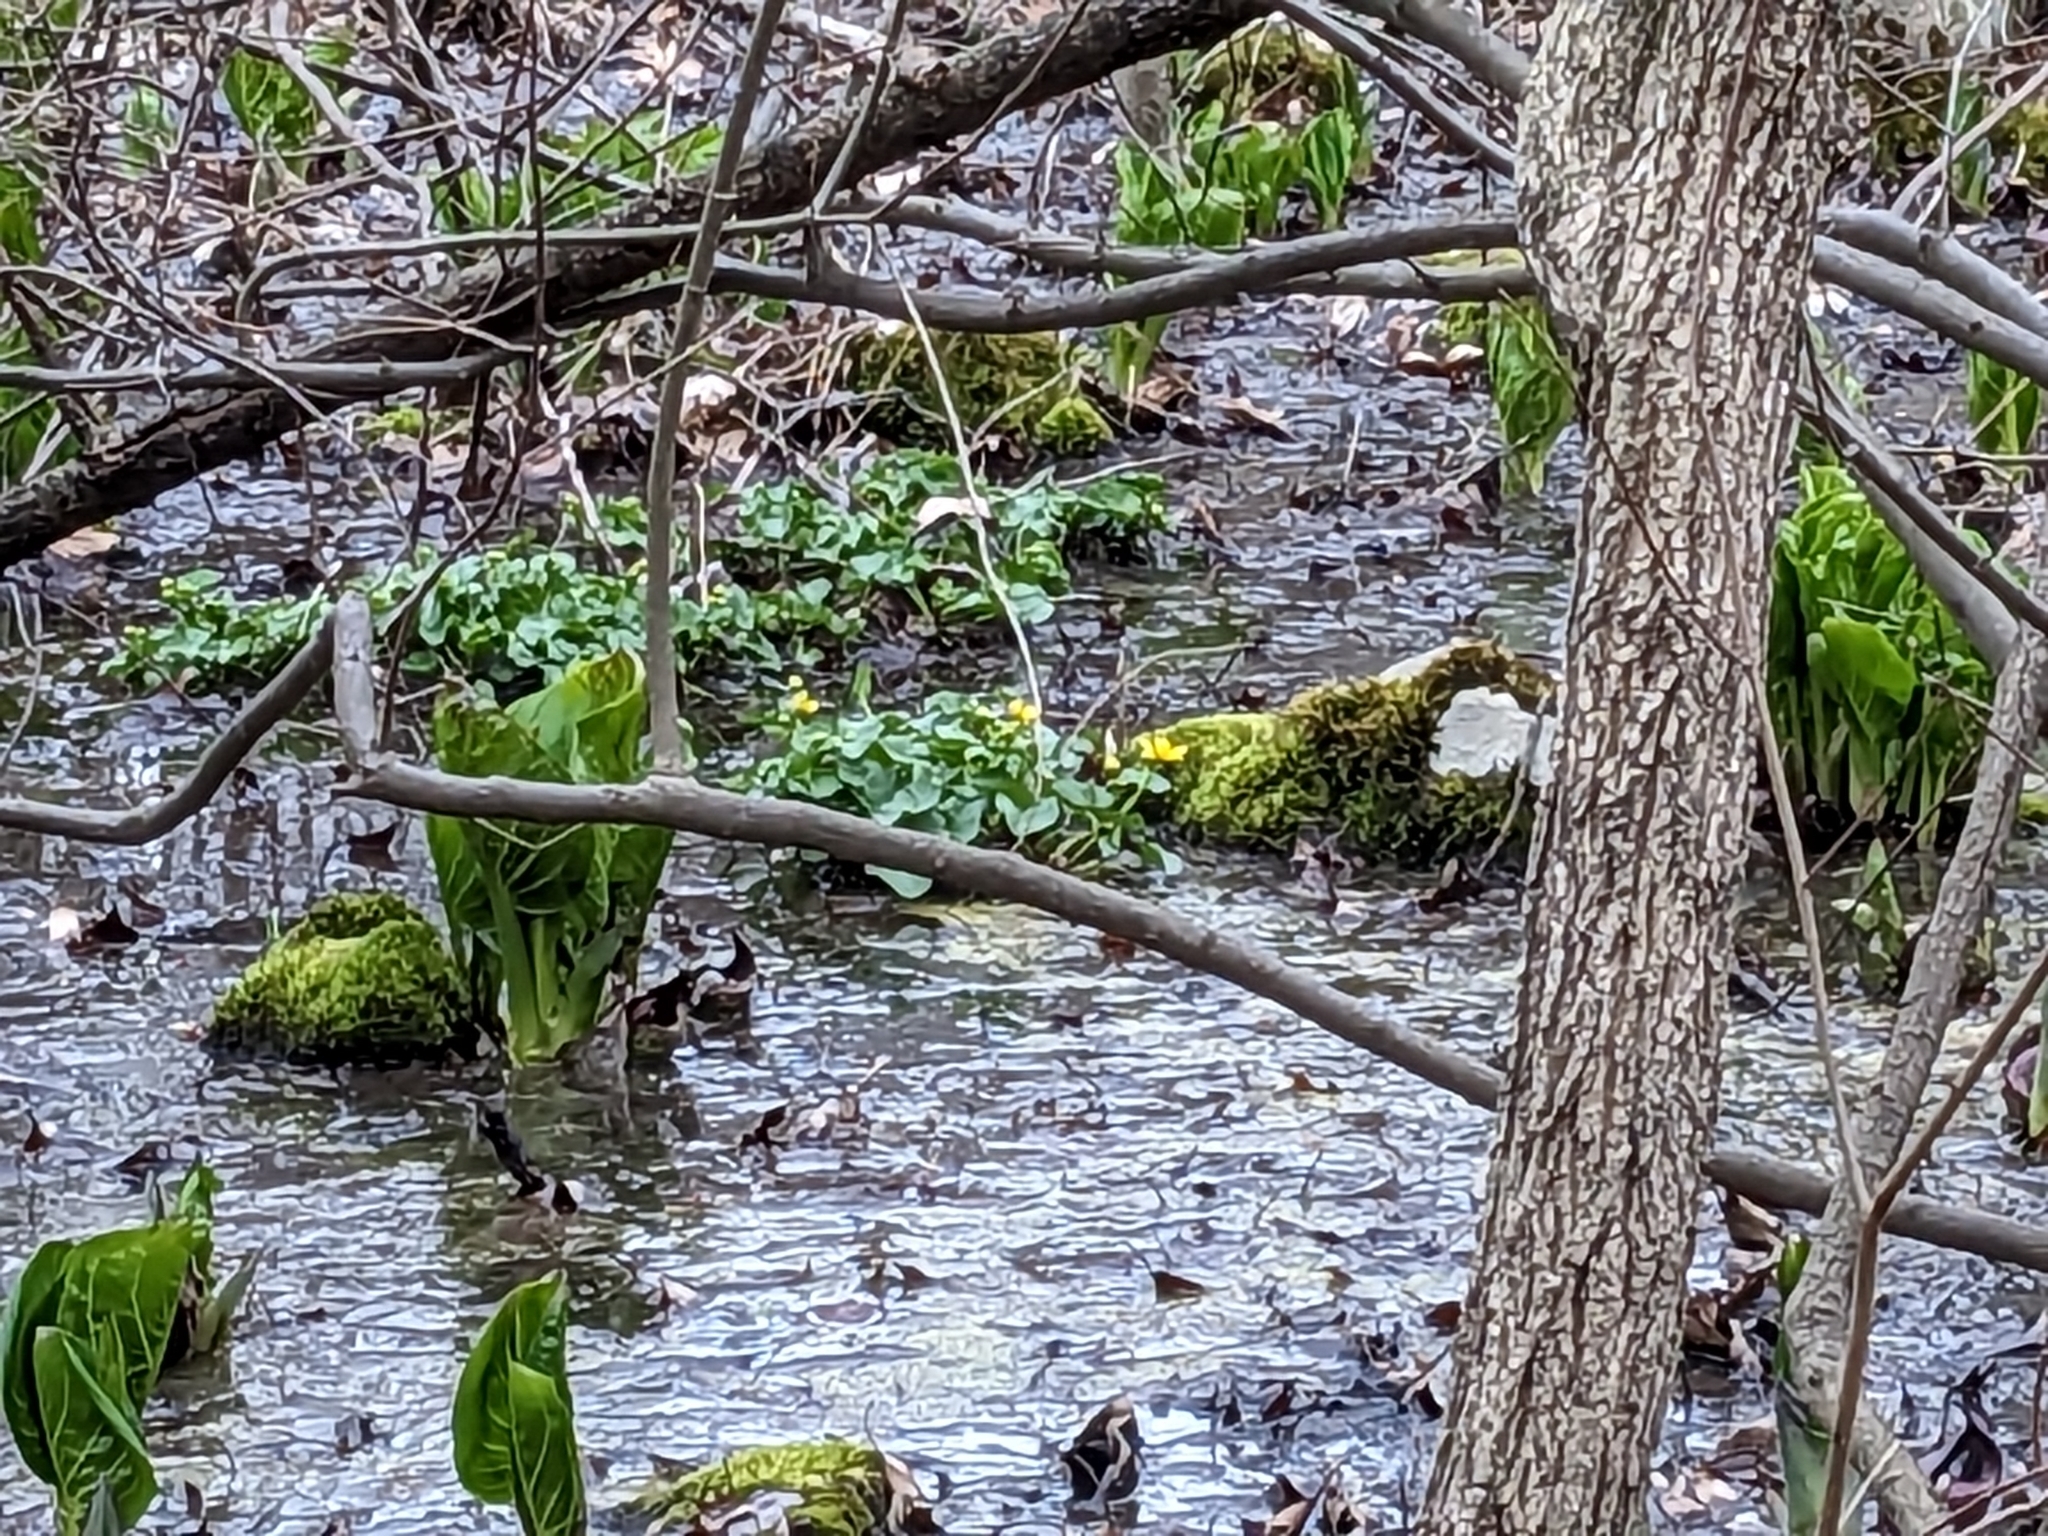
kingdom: Plantae
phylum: Tracheophyta
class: Magnoliopsida
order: Ranunculales
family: Ranunculaceae
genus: Caltha
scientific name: Caltha palustris
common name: Marsh marigold
